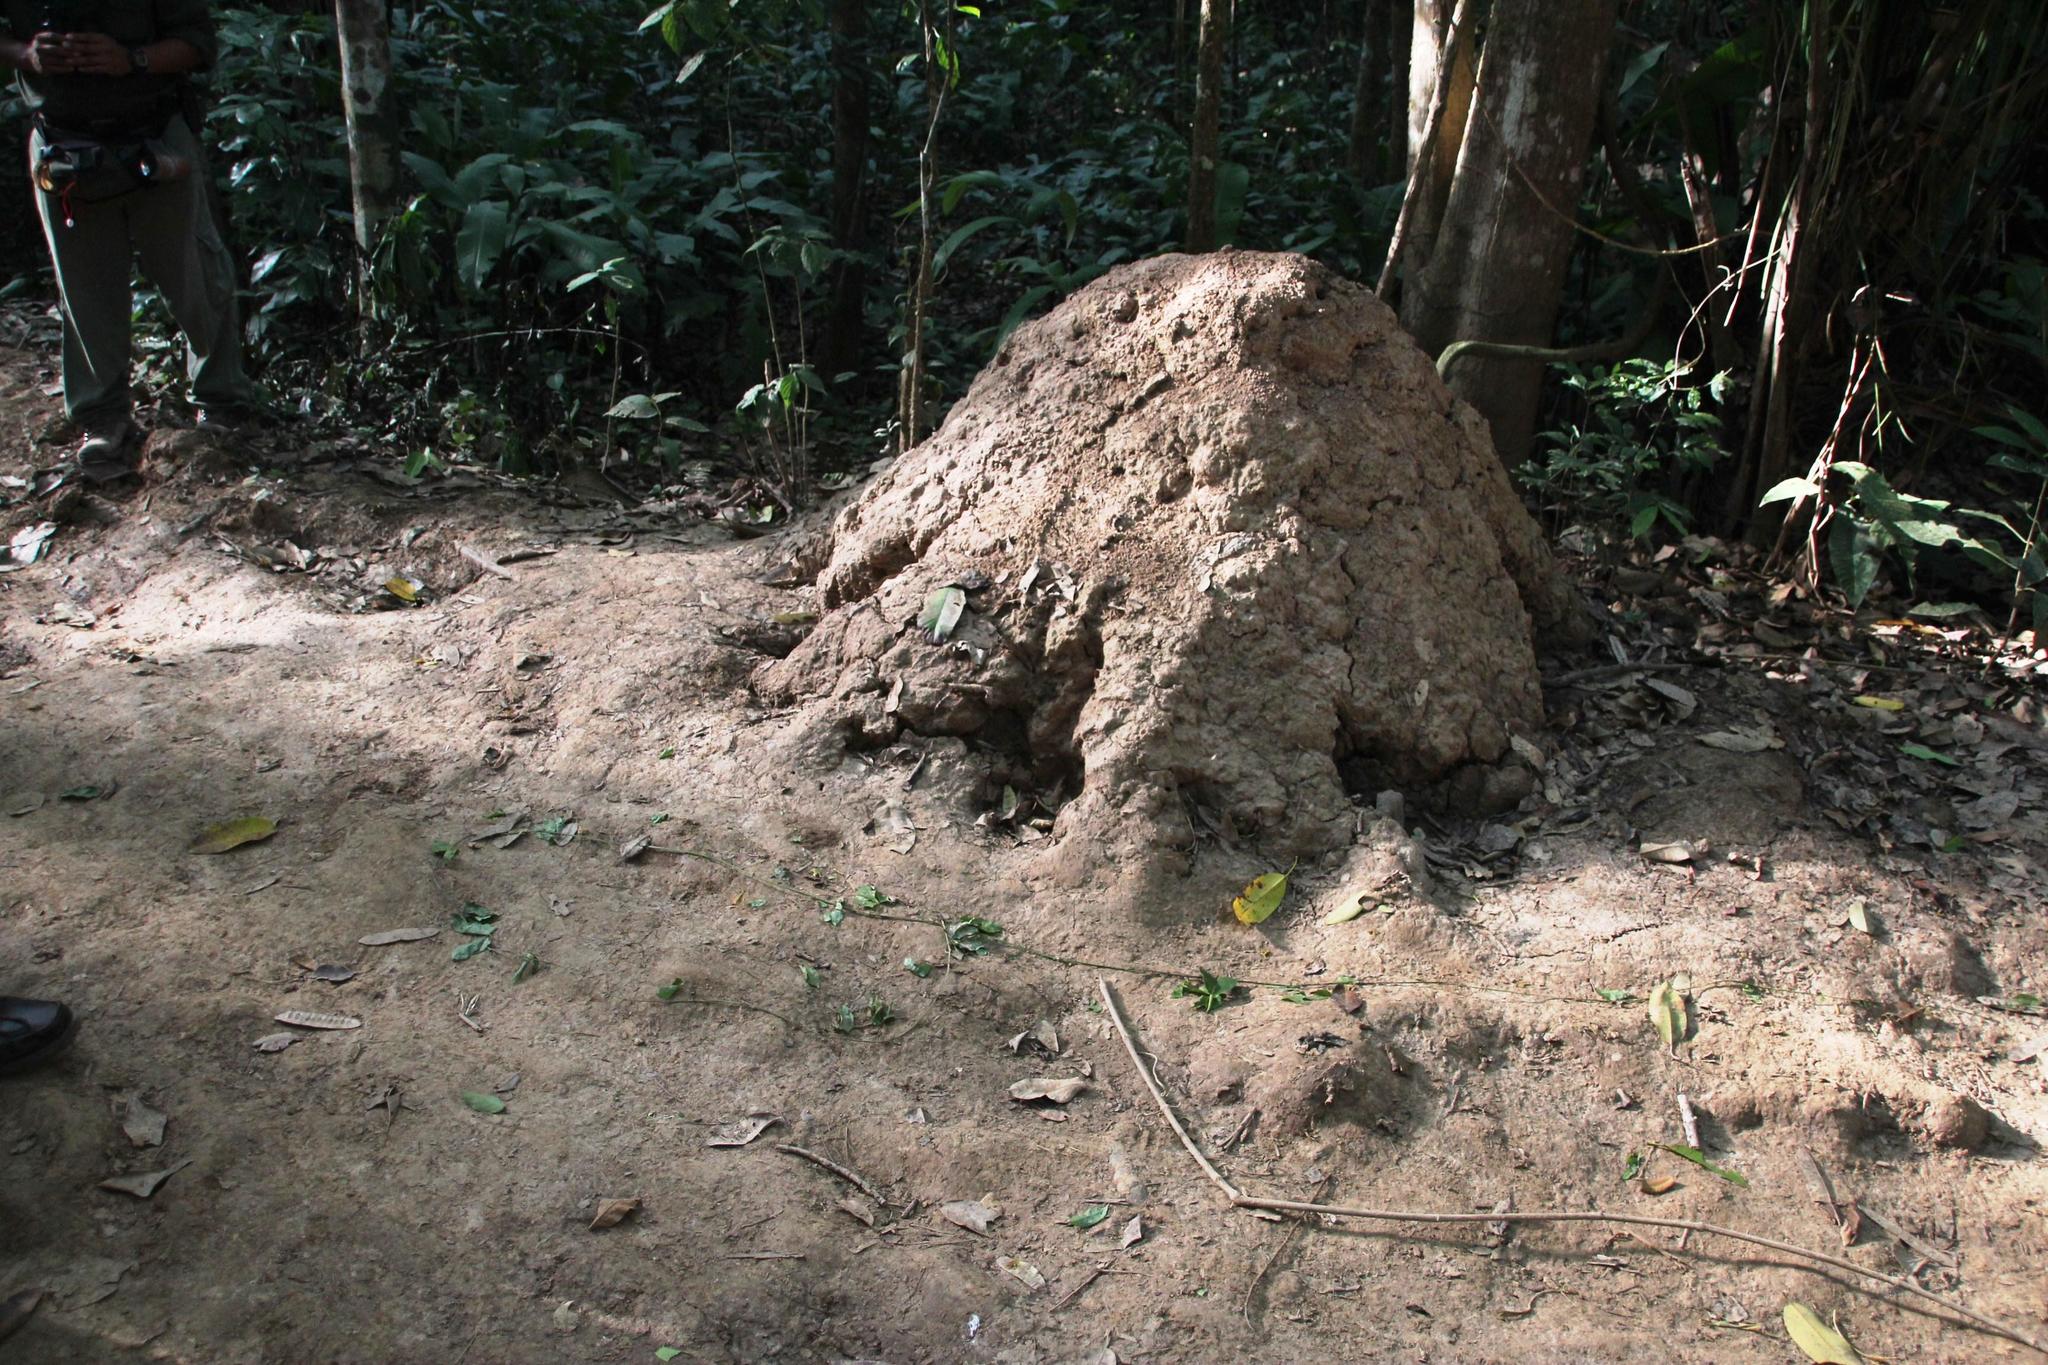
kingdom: Animalia
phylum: Chordata
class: Mammalia
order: Pilosa
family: Myrmecophagidae
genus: Myrmecophaga
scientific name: Myrmecophaga tridactyla
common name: Giant anteater
